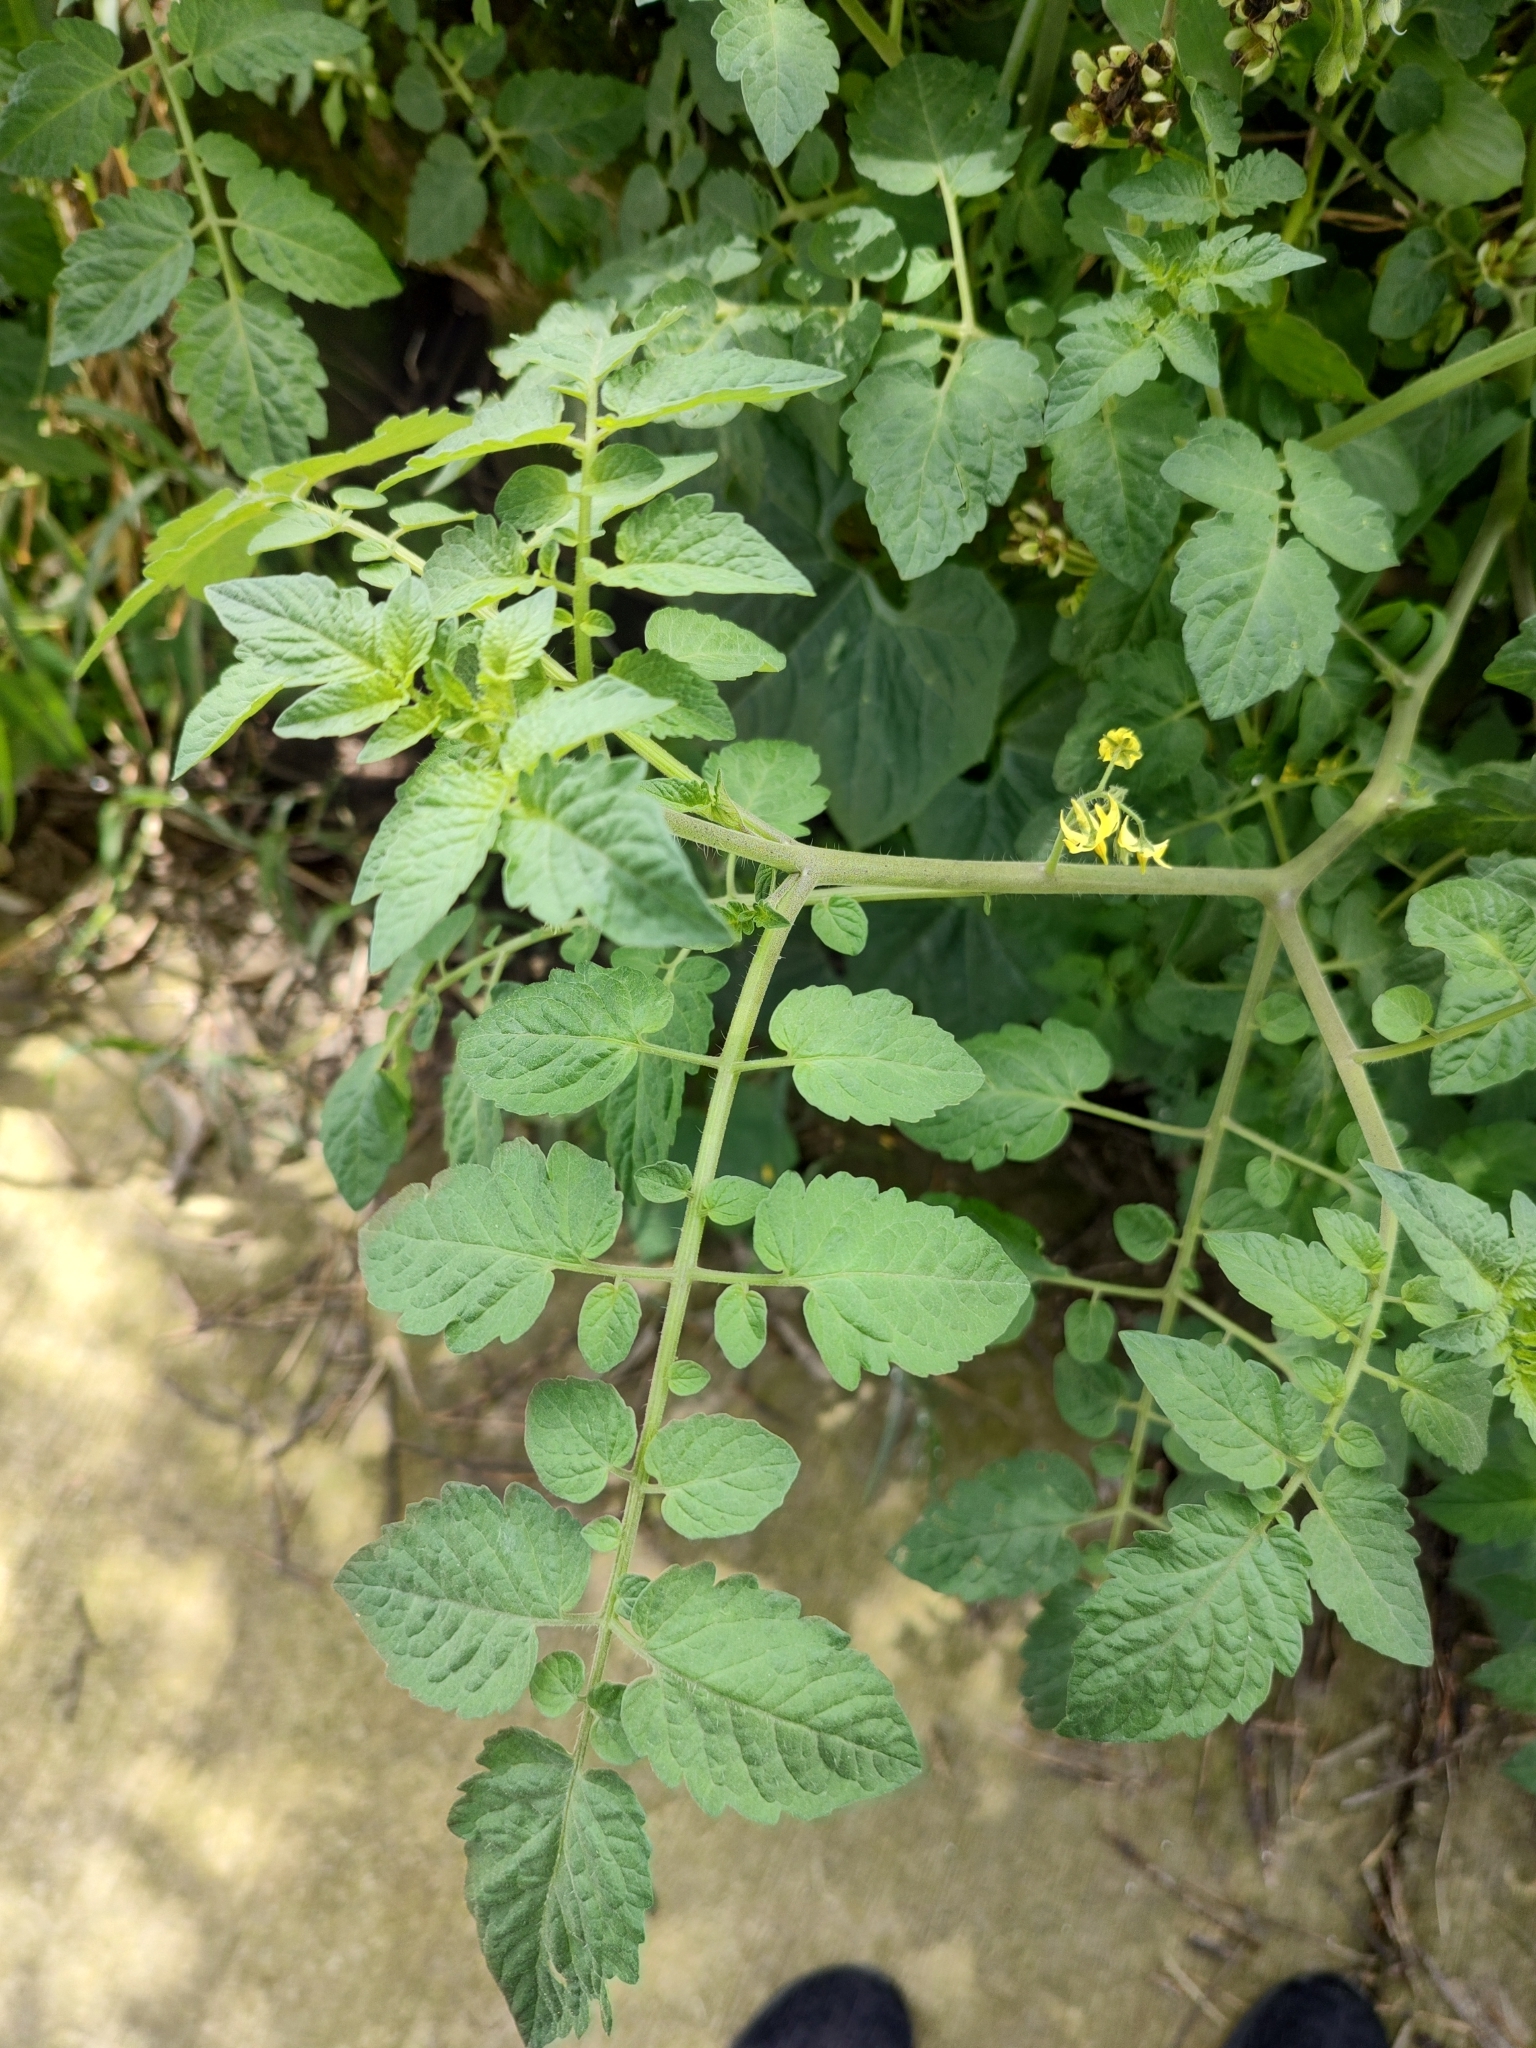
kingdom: Plantae
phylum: Tracheophyta
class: Magnoliopsida
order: Solanales
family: Solanaceae
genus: Solanum
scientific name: Solanum lycopersicum
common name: Garden tomato
